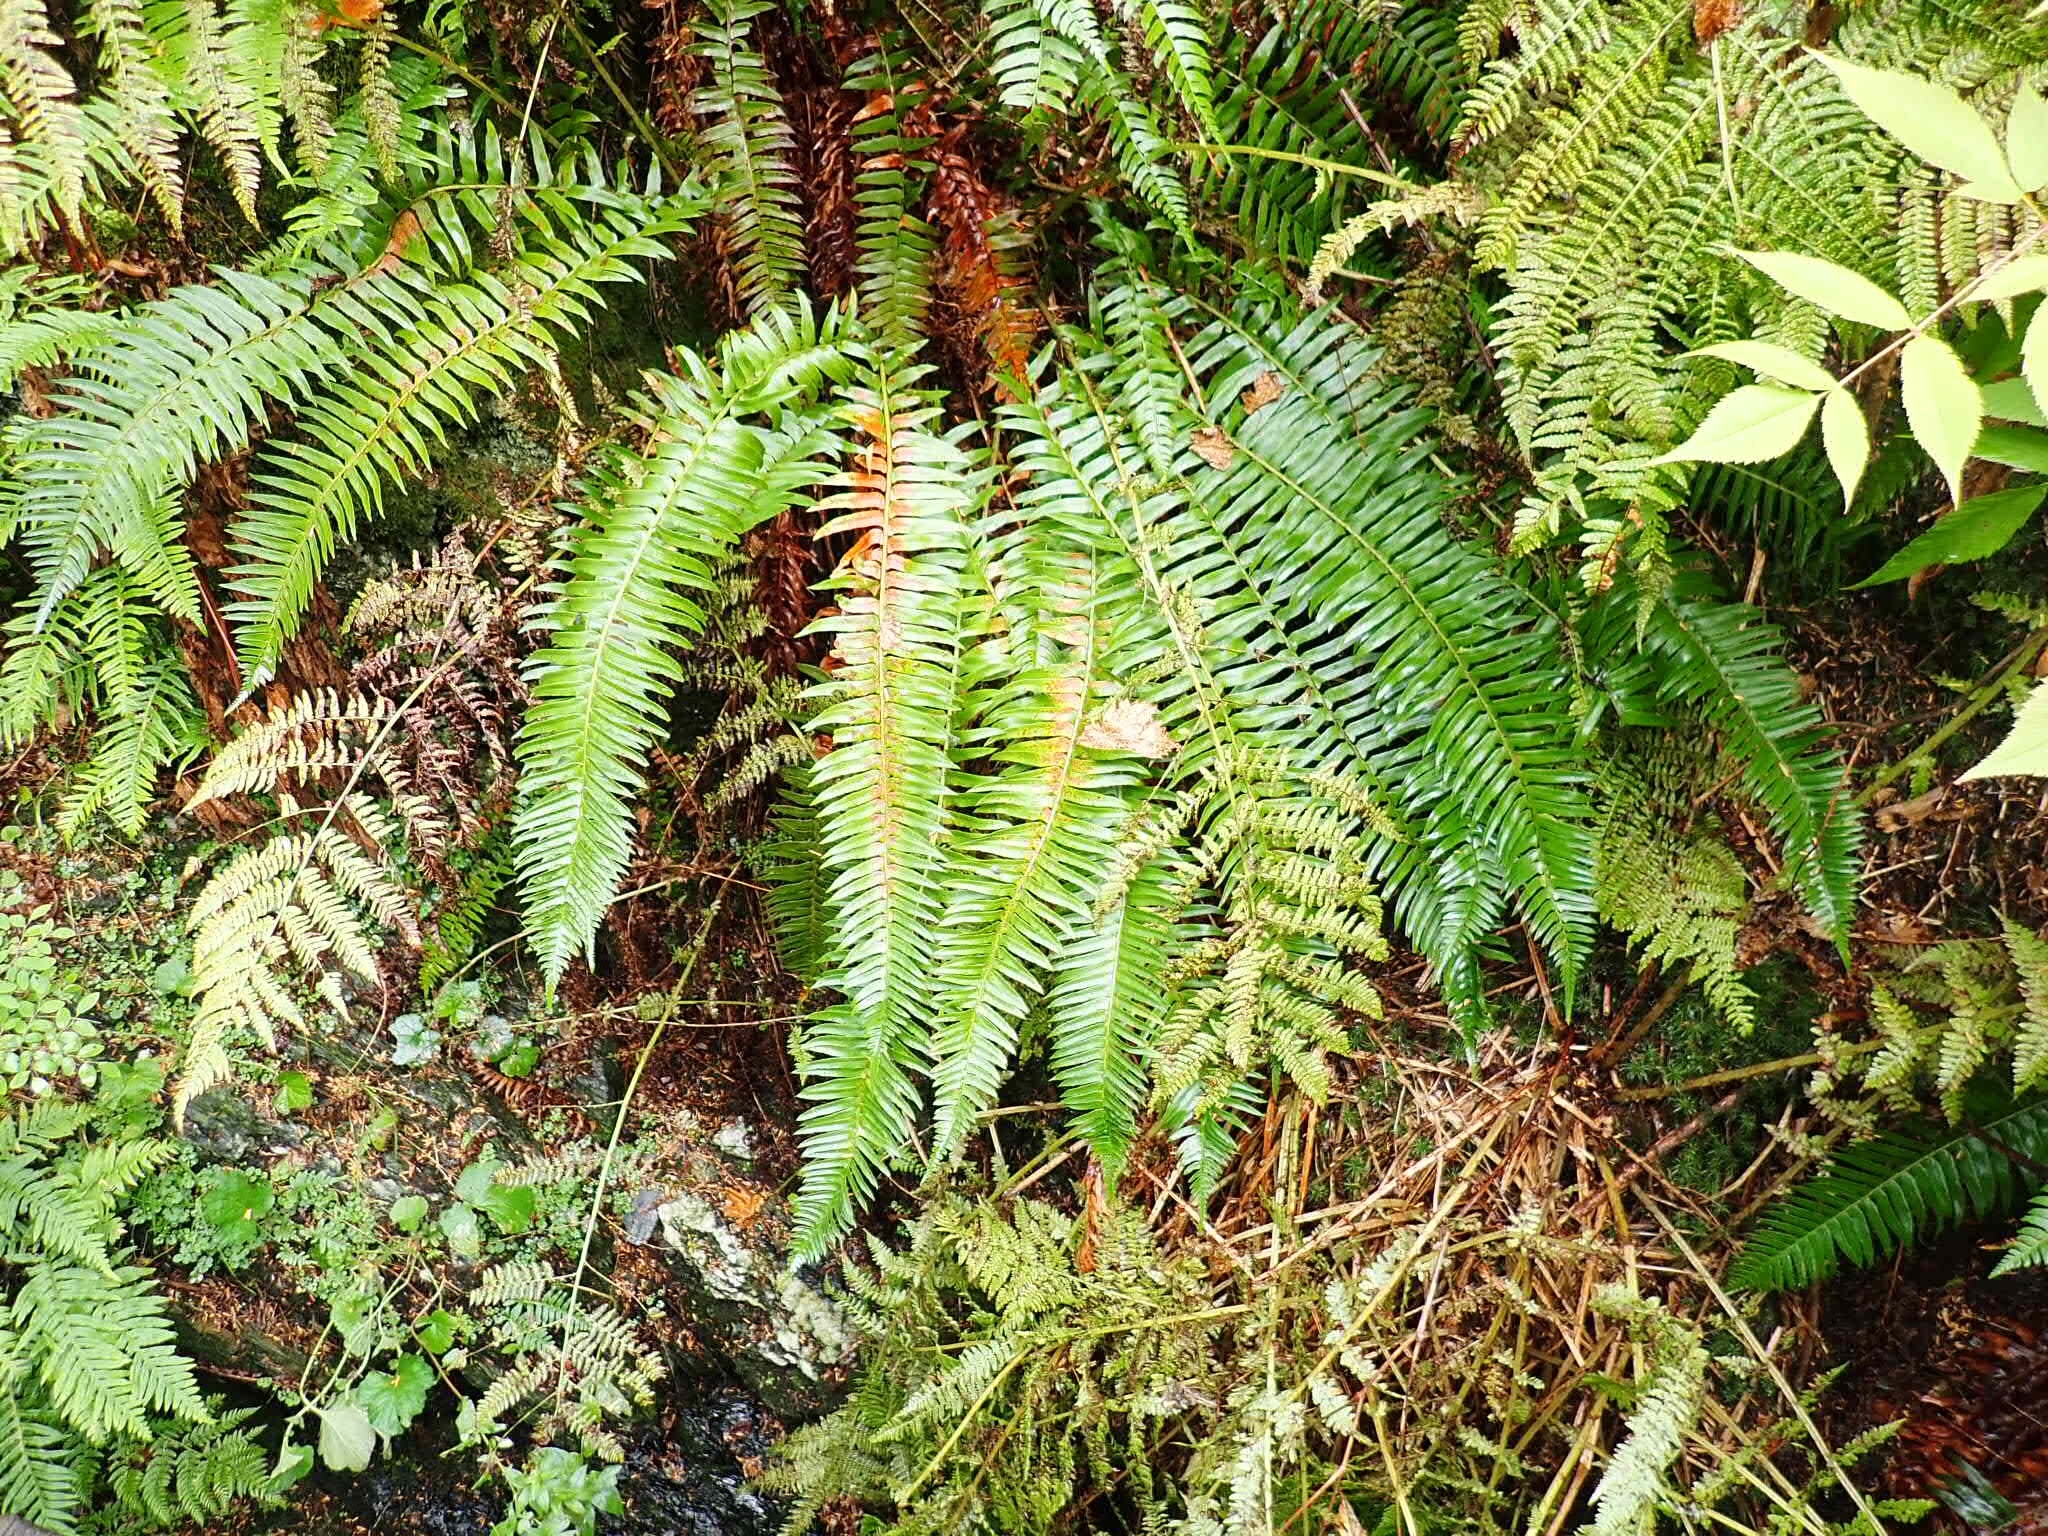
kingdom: Plantae
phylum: Tracheophyta
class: Polypodiopsida
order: Polypodiales
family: Dryopteridaceae
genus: Polystichum
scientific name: Polystichum munitum
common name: Western sword-fern
